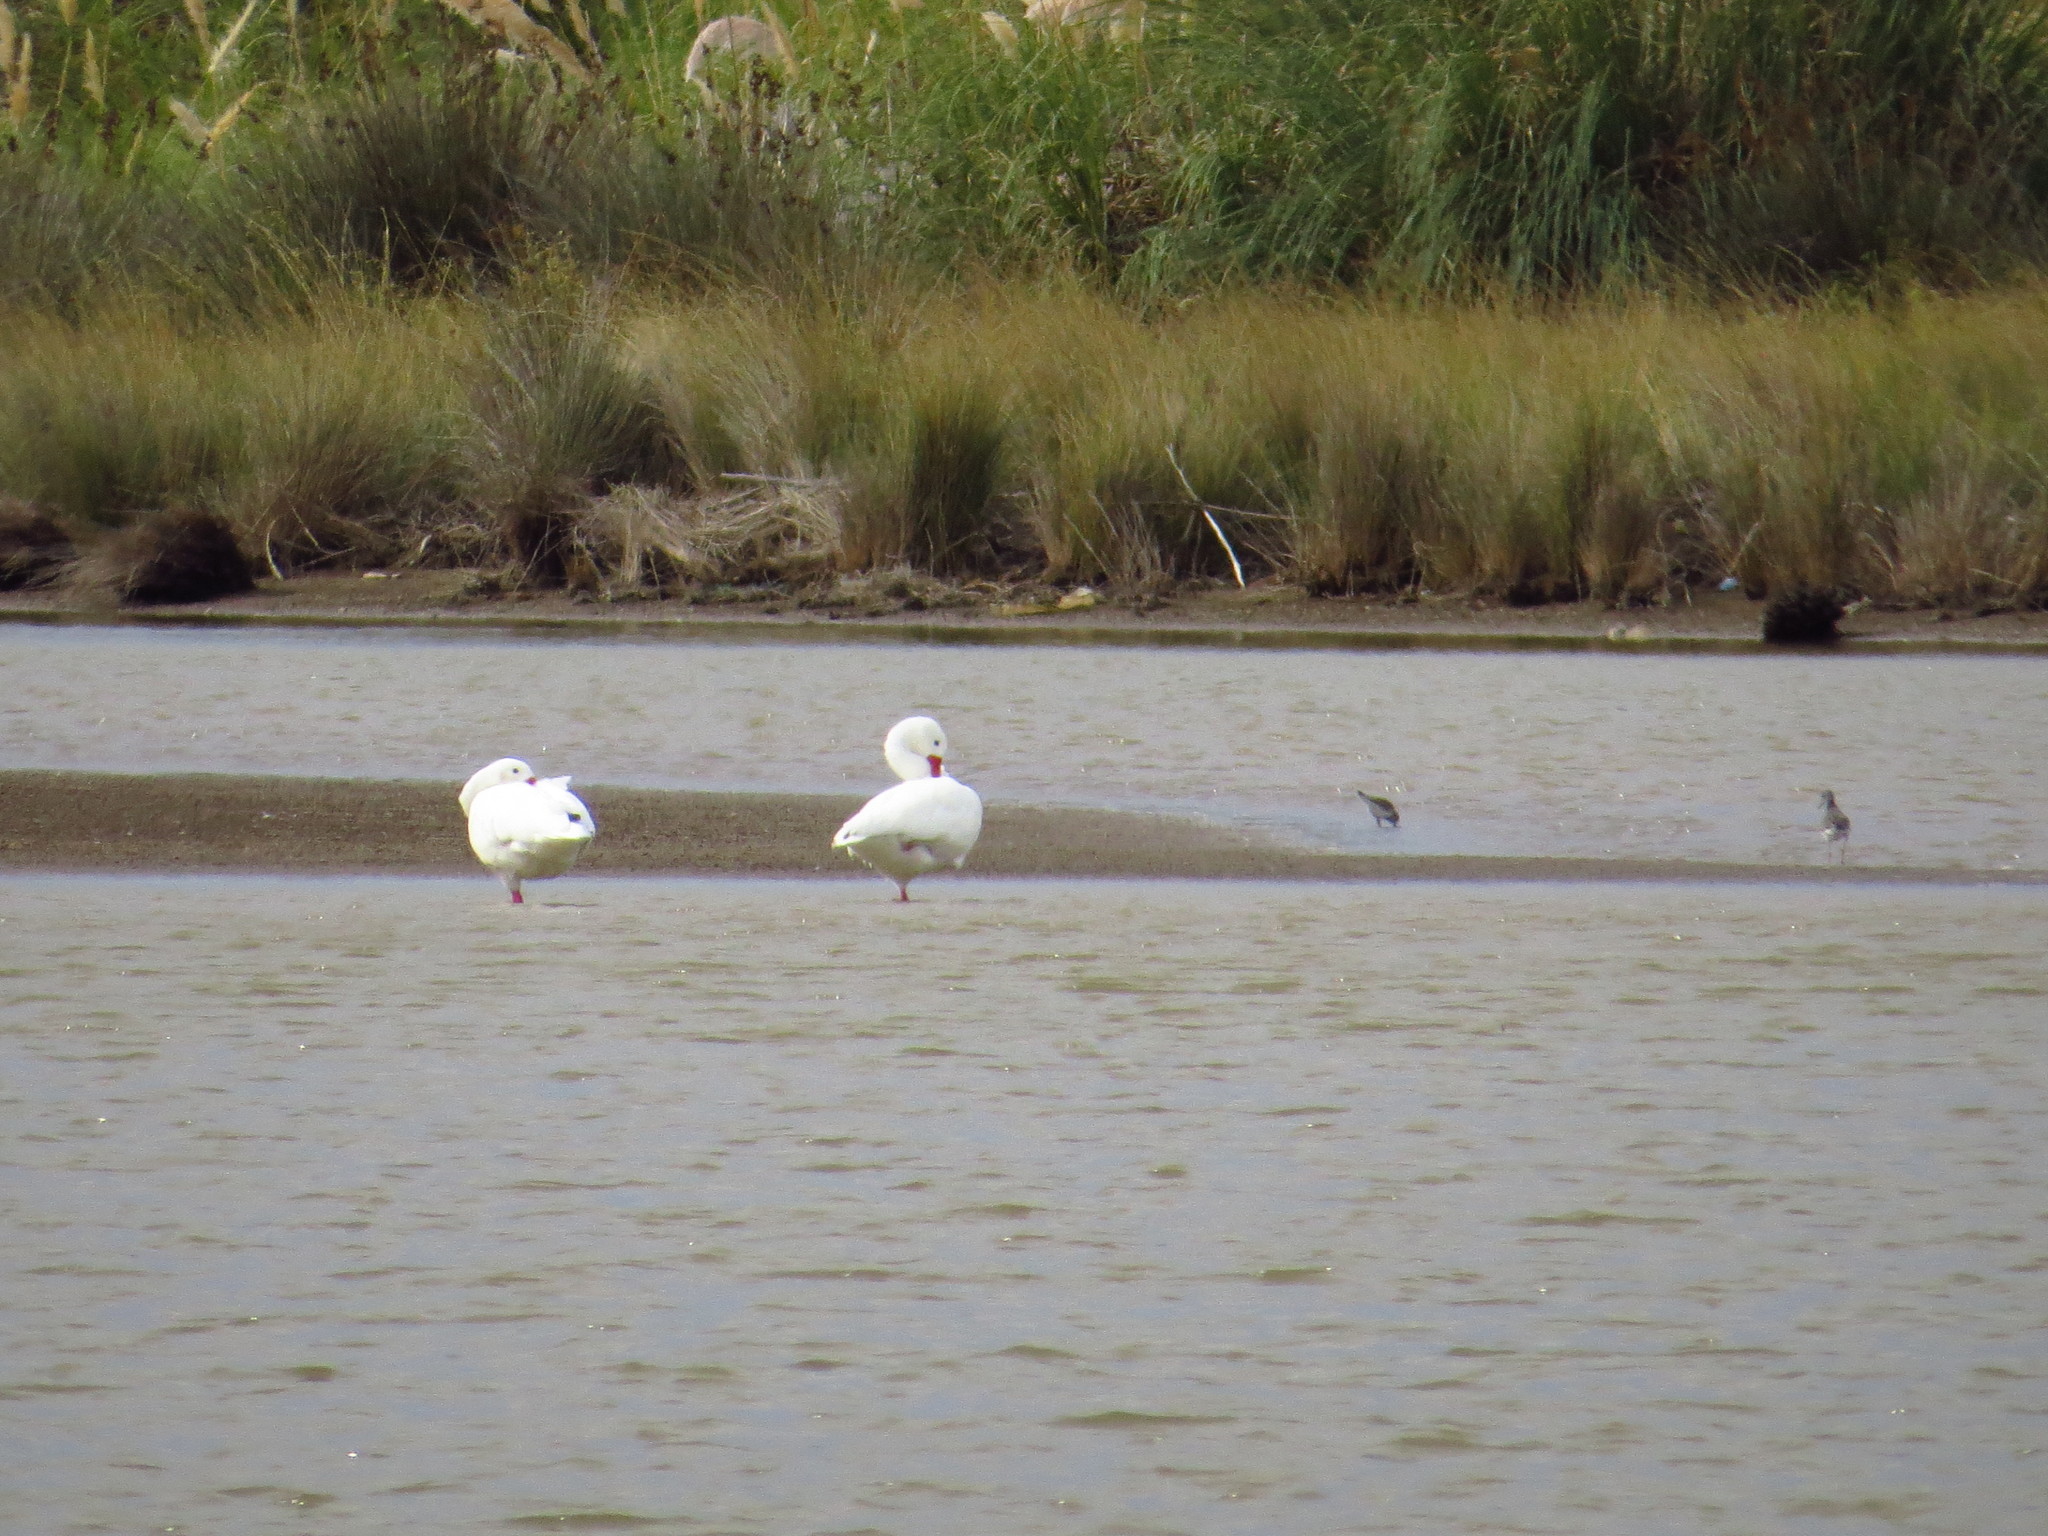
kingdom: Animalia
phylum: Chordata
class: Aves
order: Anseriformes
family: Anatidae
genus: Coscoroba
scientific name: Coscoroba coscoroba
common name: Coscoroba swan
